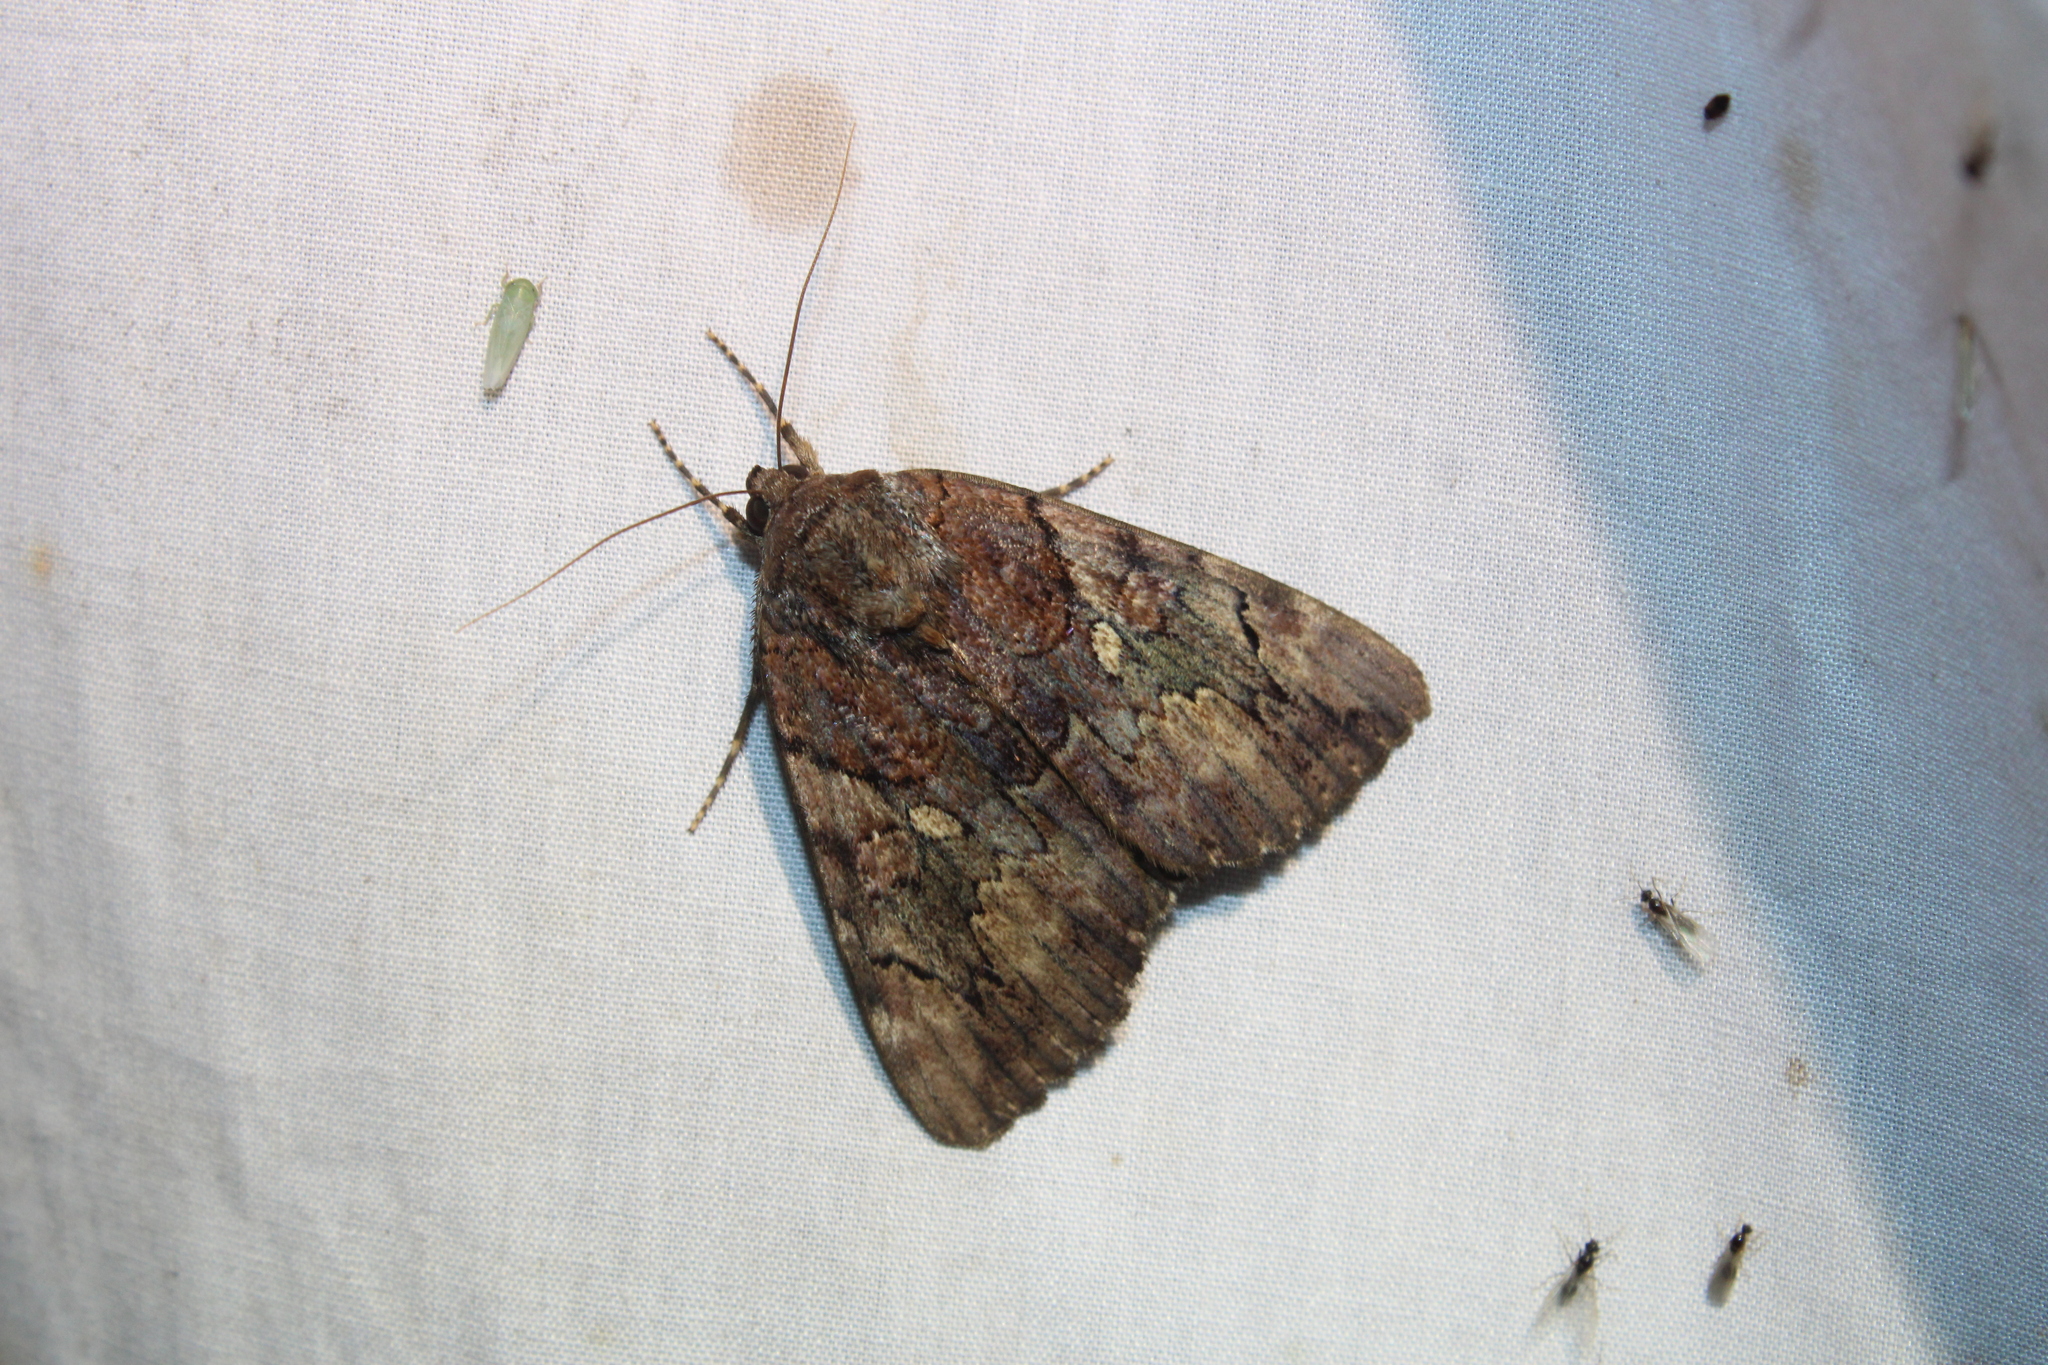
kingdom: Animalia
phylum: Arthropoda
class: Insecta
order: Lepidoptera
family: Erebidae
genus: Catocala
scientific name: Catocala muliercula
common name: The little wife underwing
